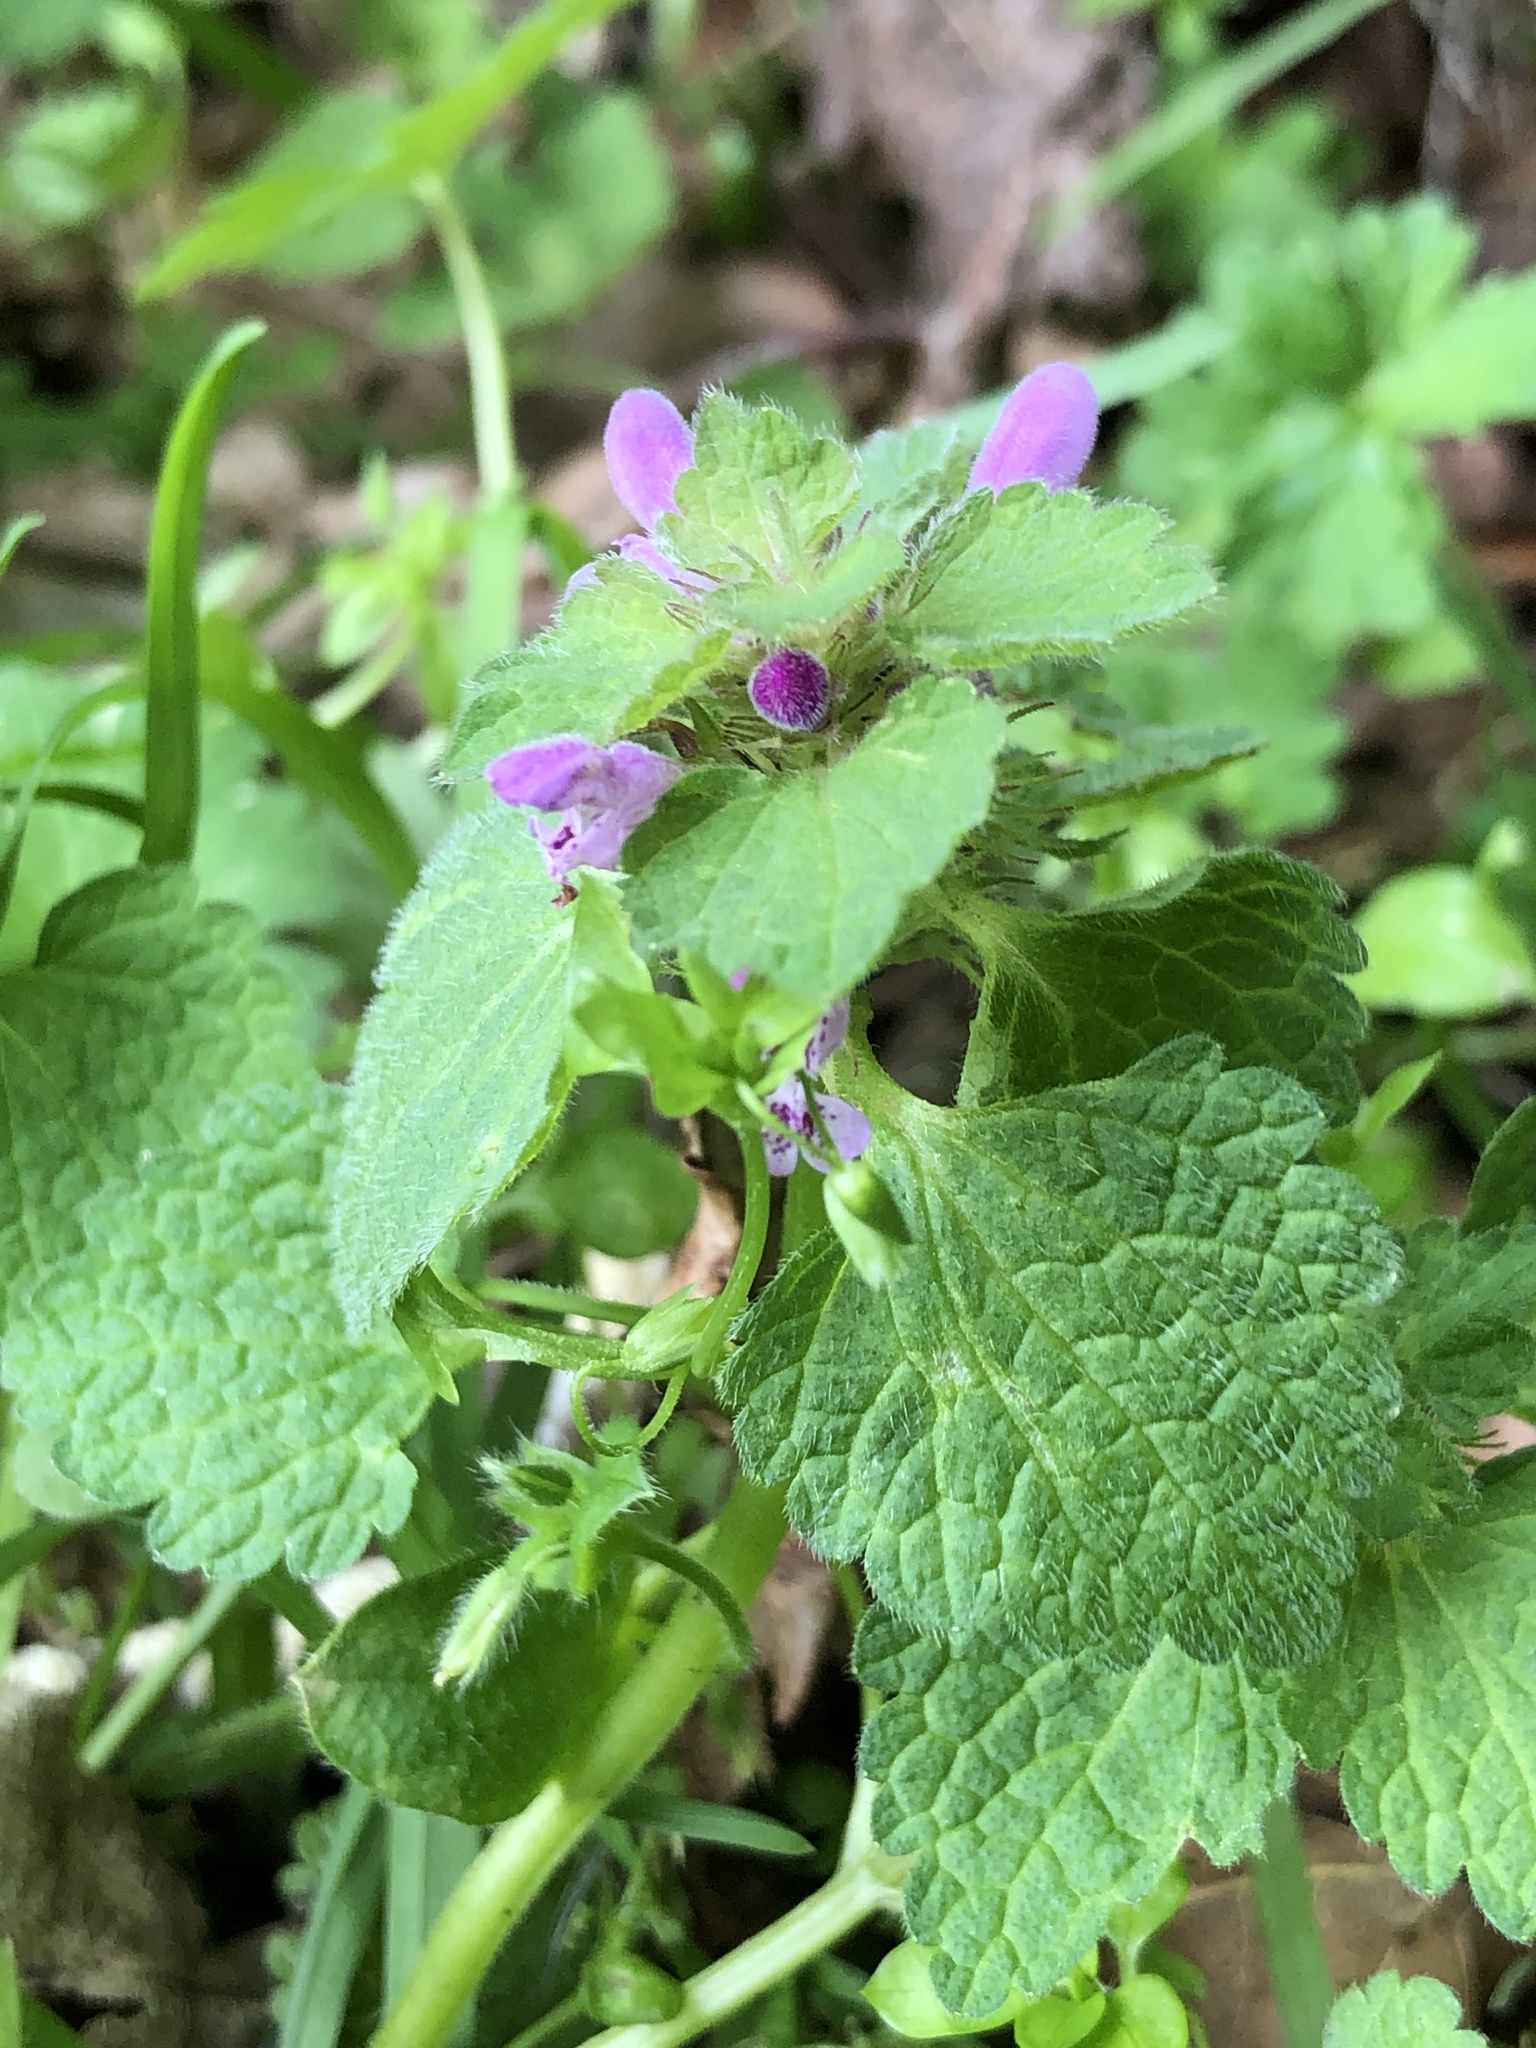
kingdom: Plantae
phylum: Tracheophyta
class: Magnoliopsida
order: Lamiales
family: Lamiaceae
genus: Lamium
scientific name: Lamium purpureum
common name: Red dead-nettle
